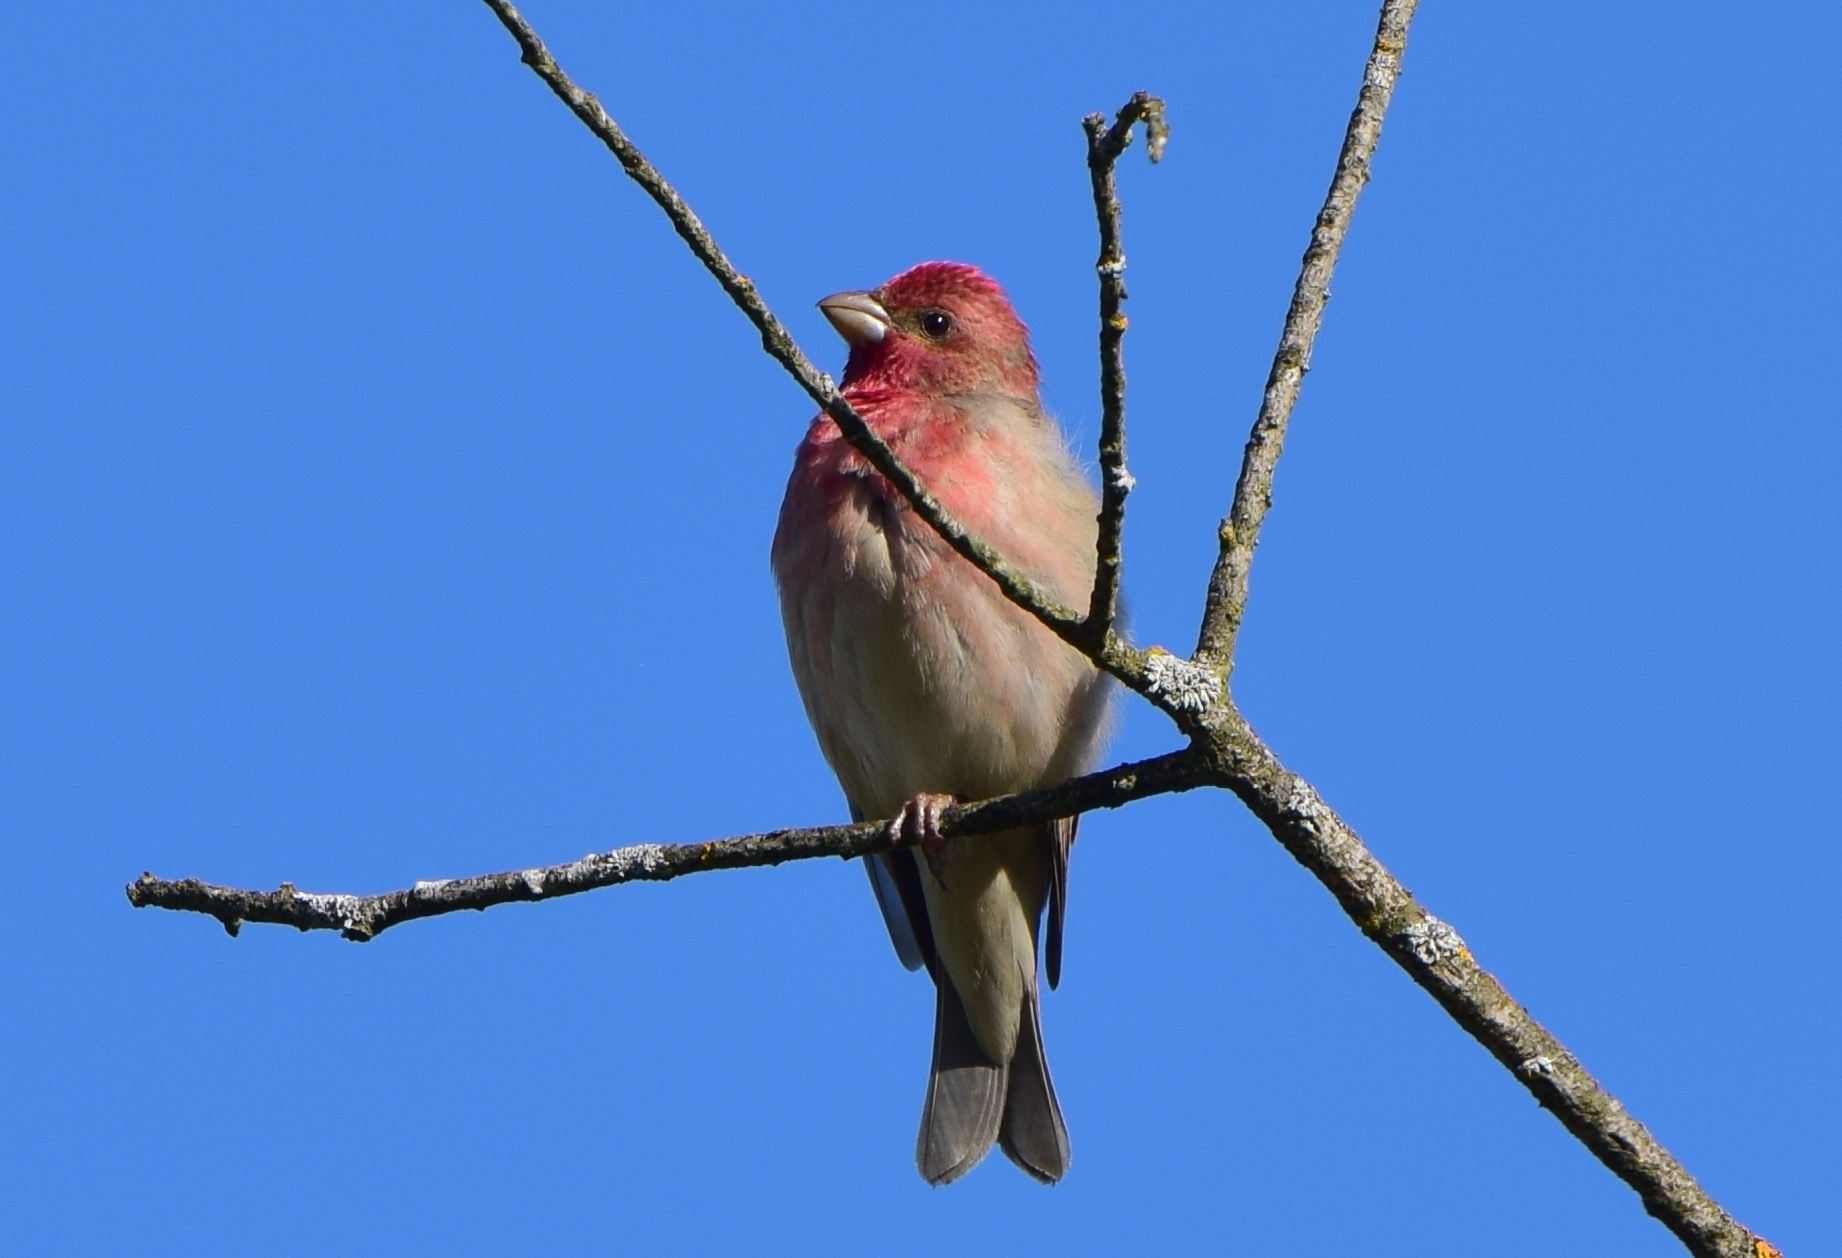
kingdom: Animalia
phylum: Chordata
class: Aves
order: Passeriformes
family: Fringillidae
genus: Carpodacus
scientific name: Carpodacus erythrinus
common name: Common rosefinch
